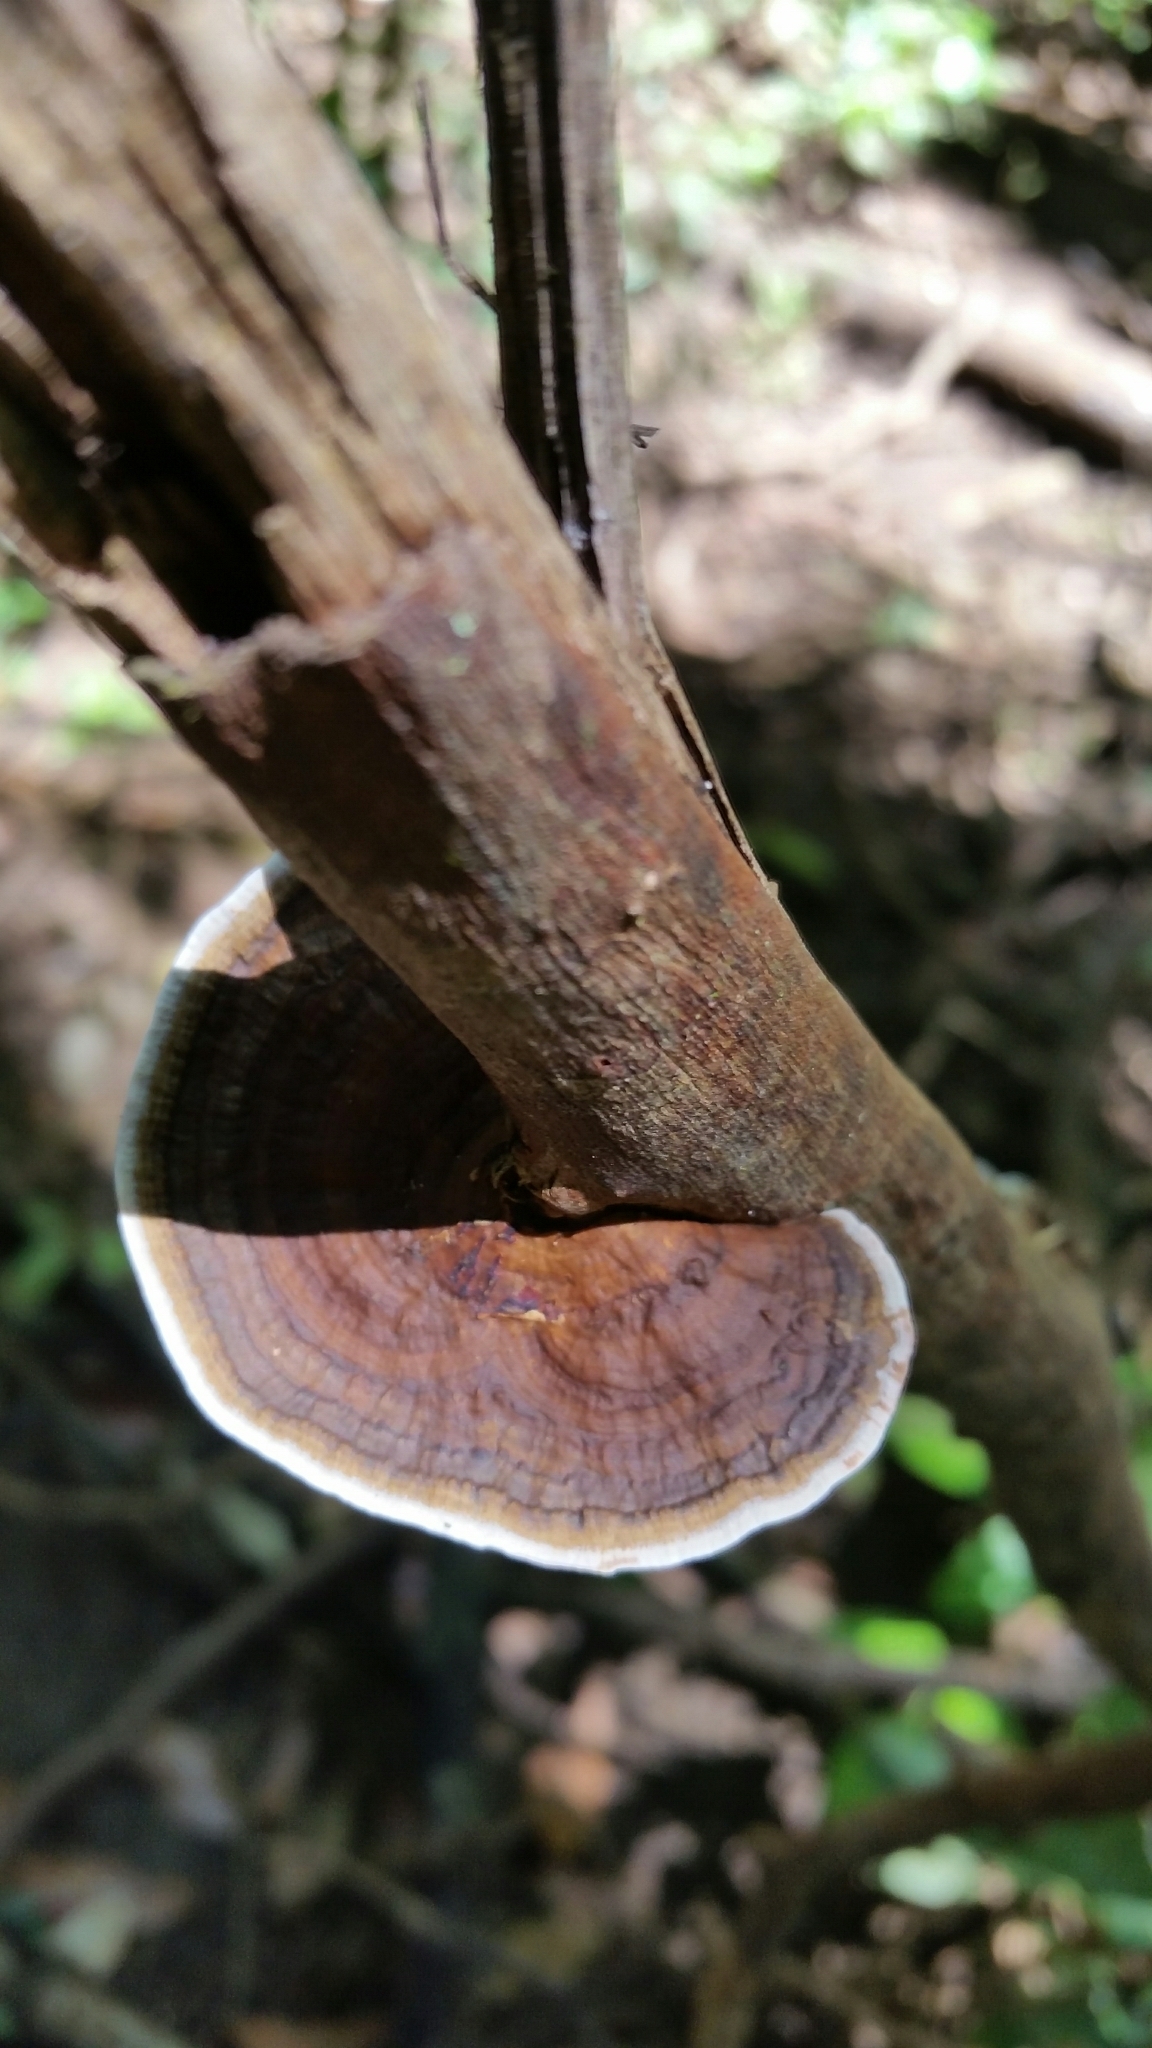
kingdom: Fungi
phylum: Basidiomycota
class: Agaricomycetes
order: Polyporales
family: Polyporaceae
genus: Pseudofavolus
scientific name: Pseudofavolus tenuis
